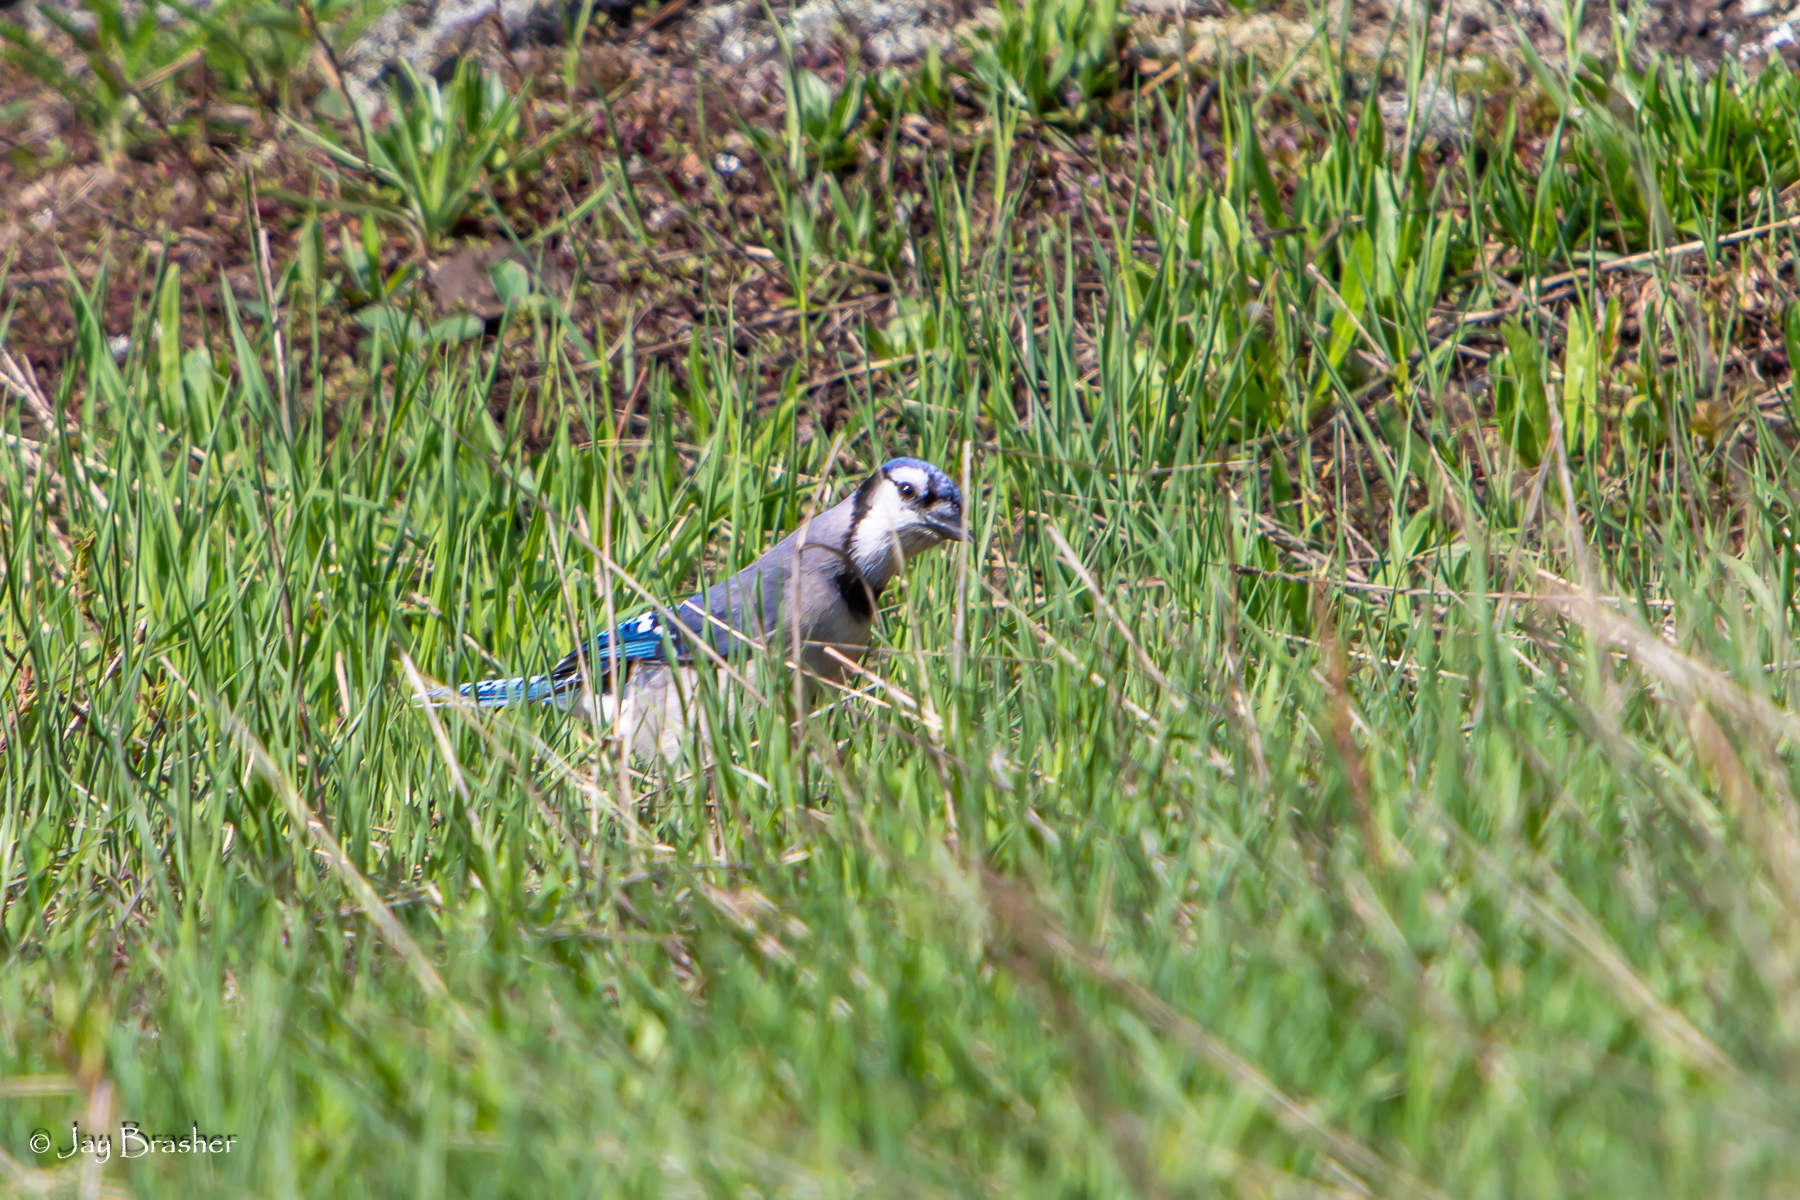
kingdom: Animalia
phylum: Chordata
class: Aves
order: Passeriformes
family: Corvidae
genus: Cyanocitta
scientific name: Cyanocitta cristata
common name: Blue jay
